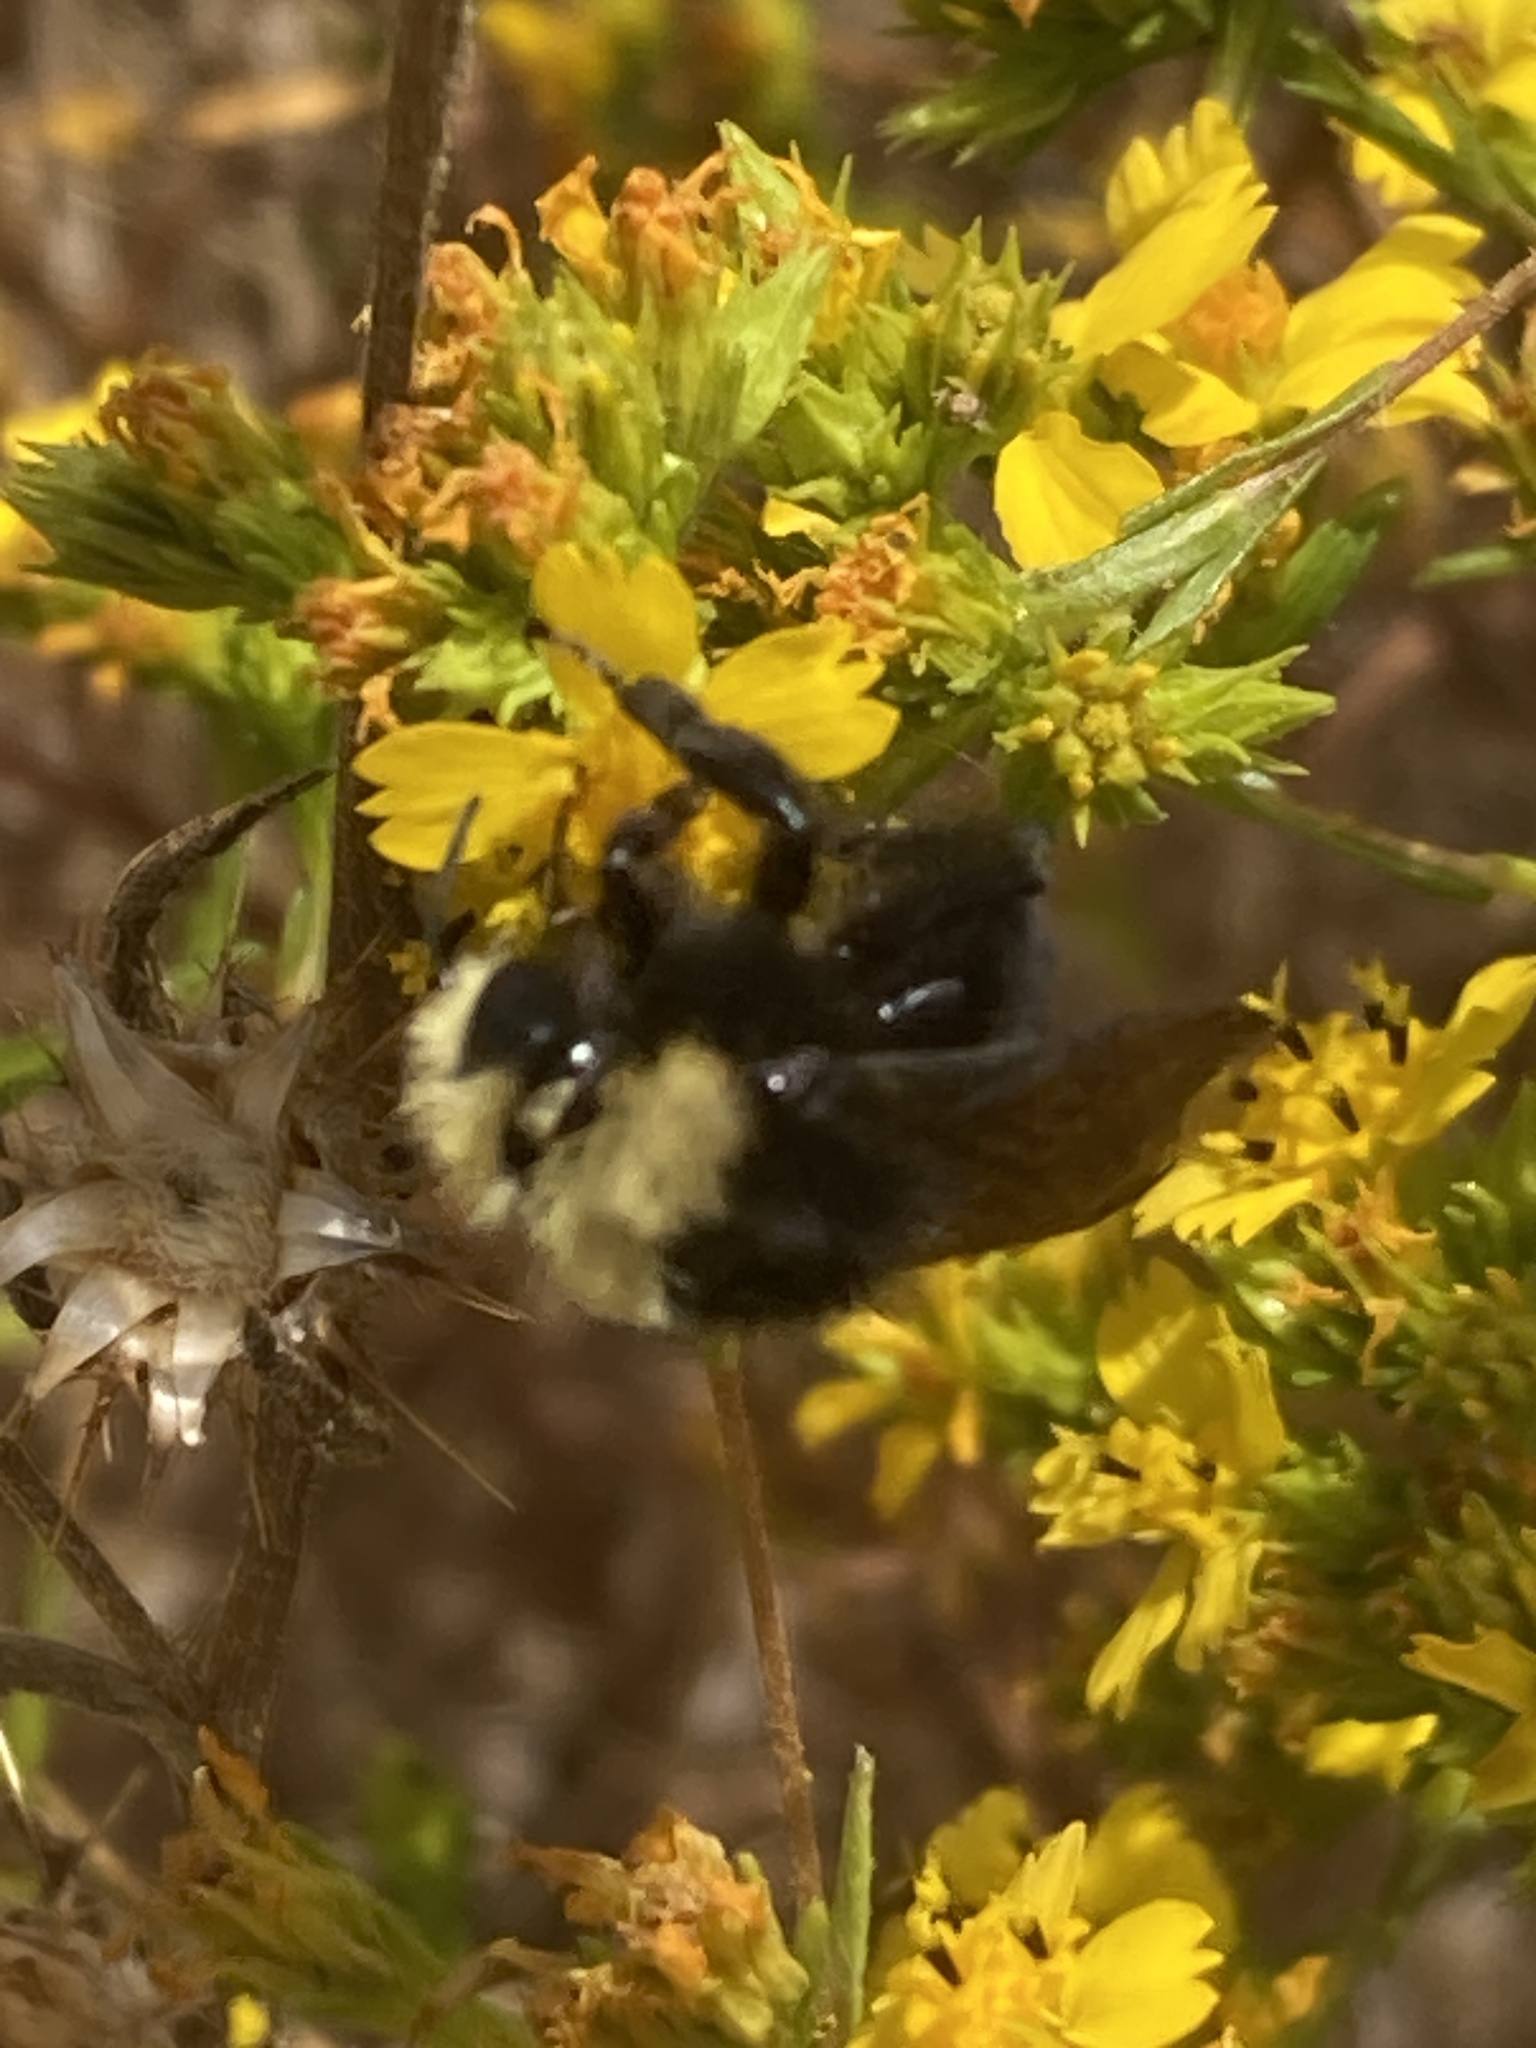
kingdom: Animalia
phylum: Arthropoda
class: Insecta
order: Hymenoptera
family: Apidae
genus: Bombus
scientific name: Bombus vosnesenskii
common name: Vosnesensky bumble bee
